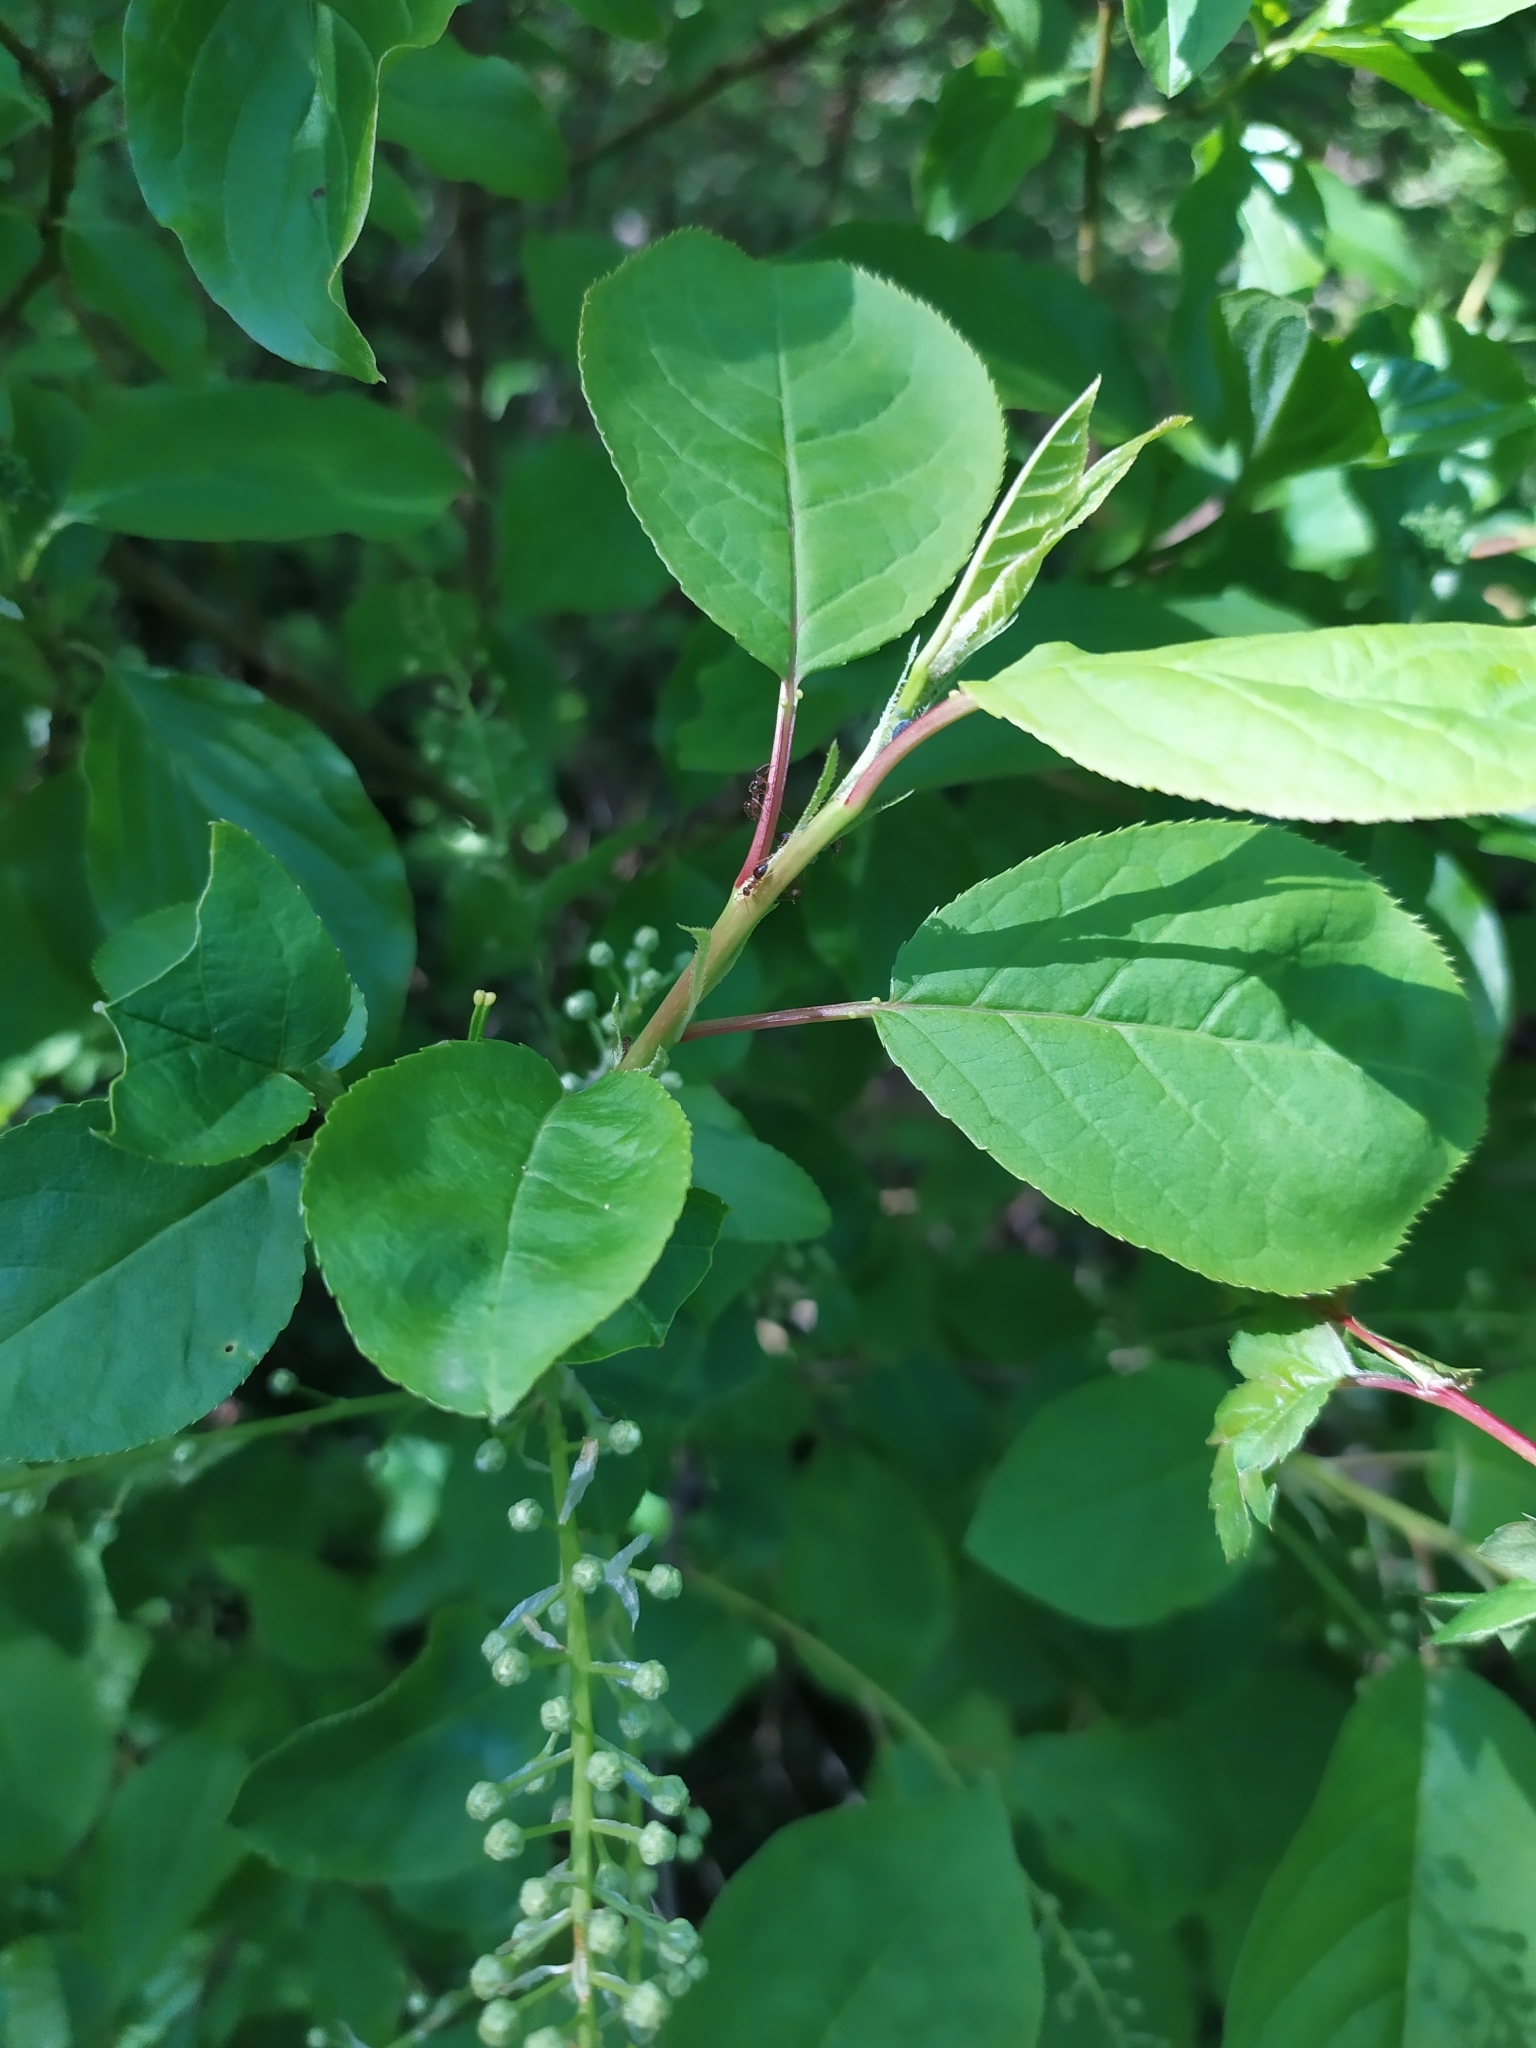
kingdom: Plantae
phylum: Tracheophyta
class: Magnoliopsida
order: Rosales
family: Rosaceae
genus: Prunus
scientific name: Prunus padus
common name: Bird cherry
